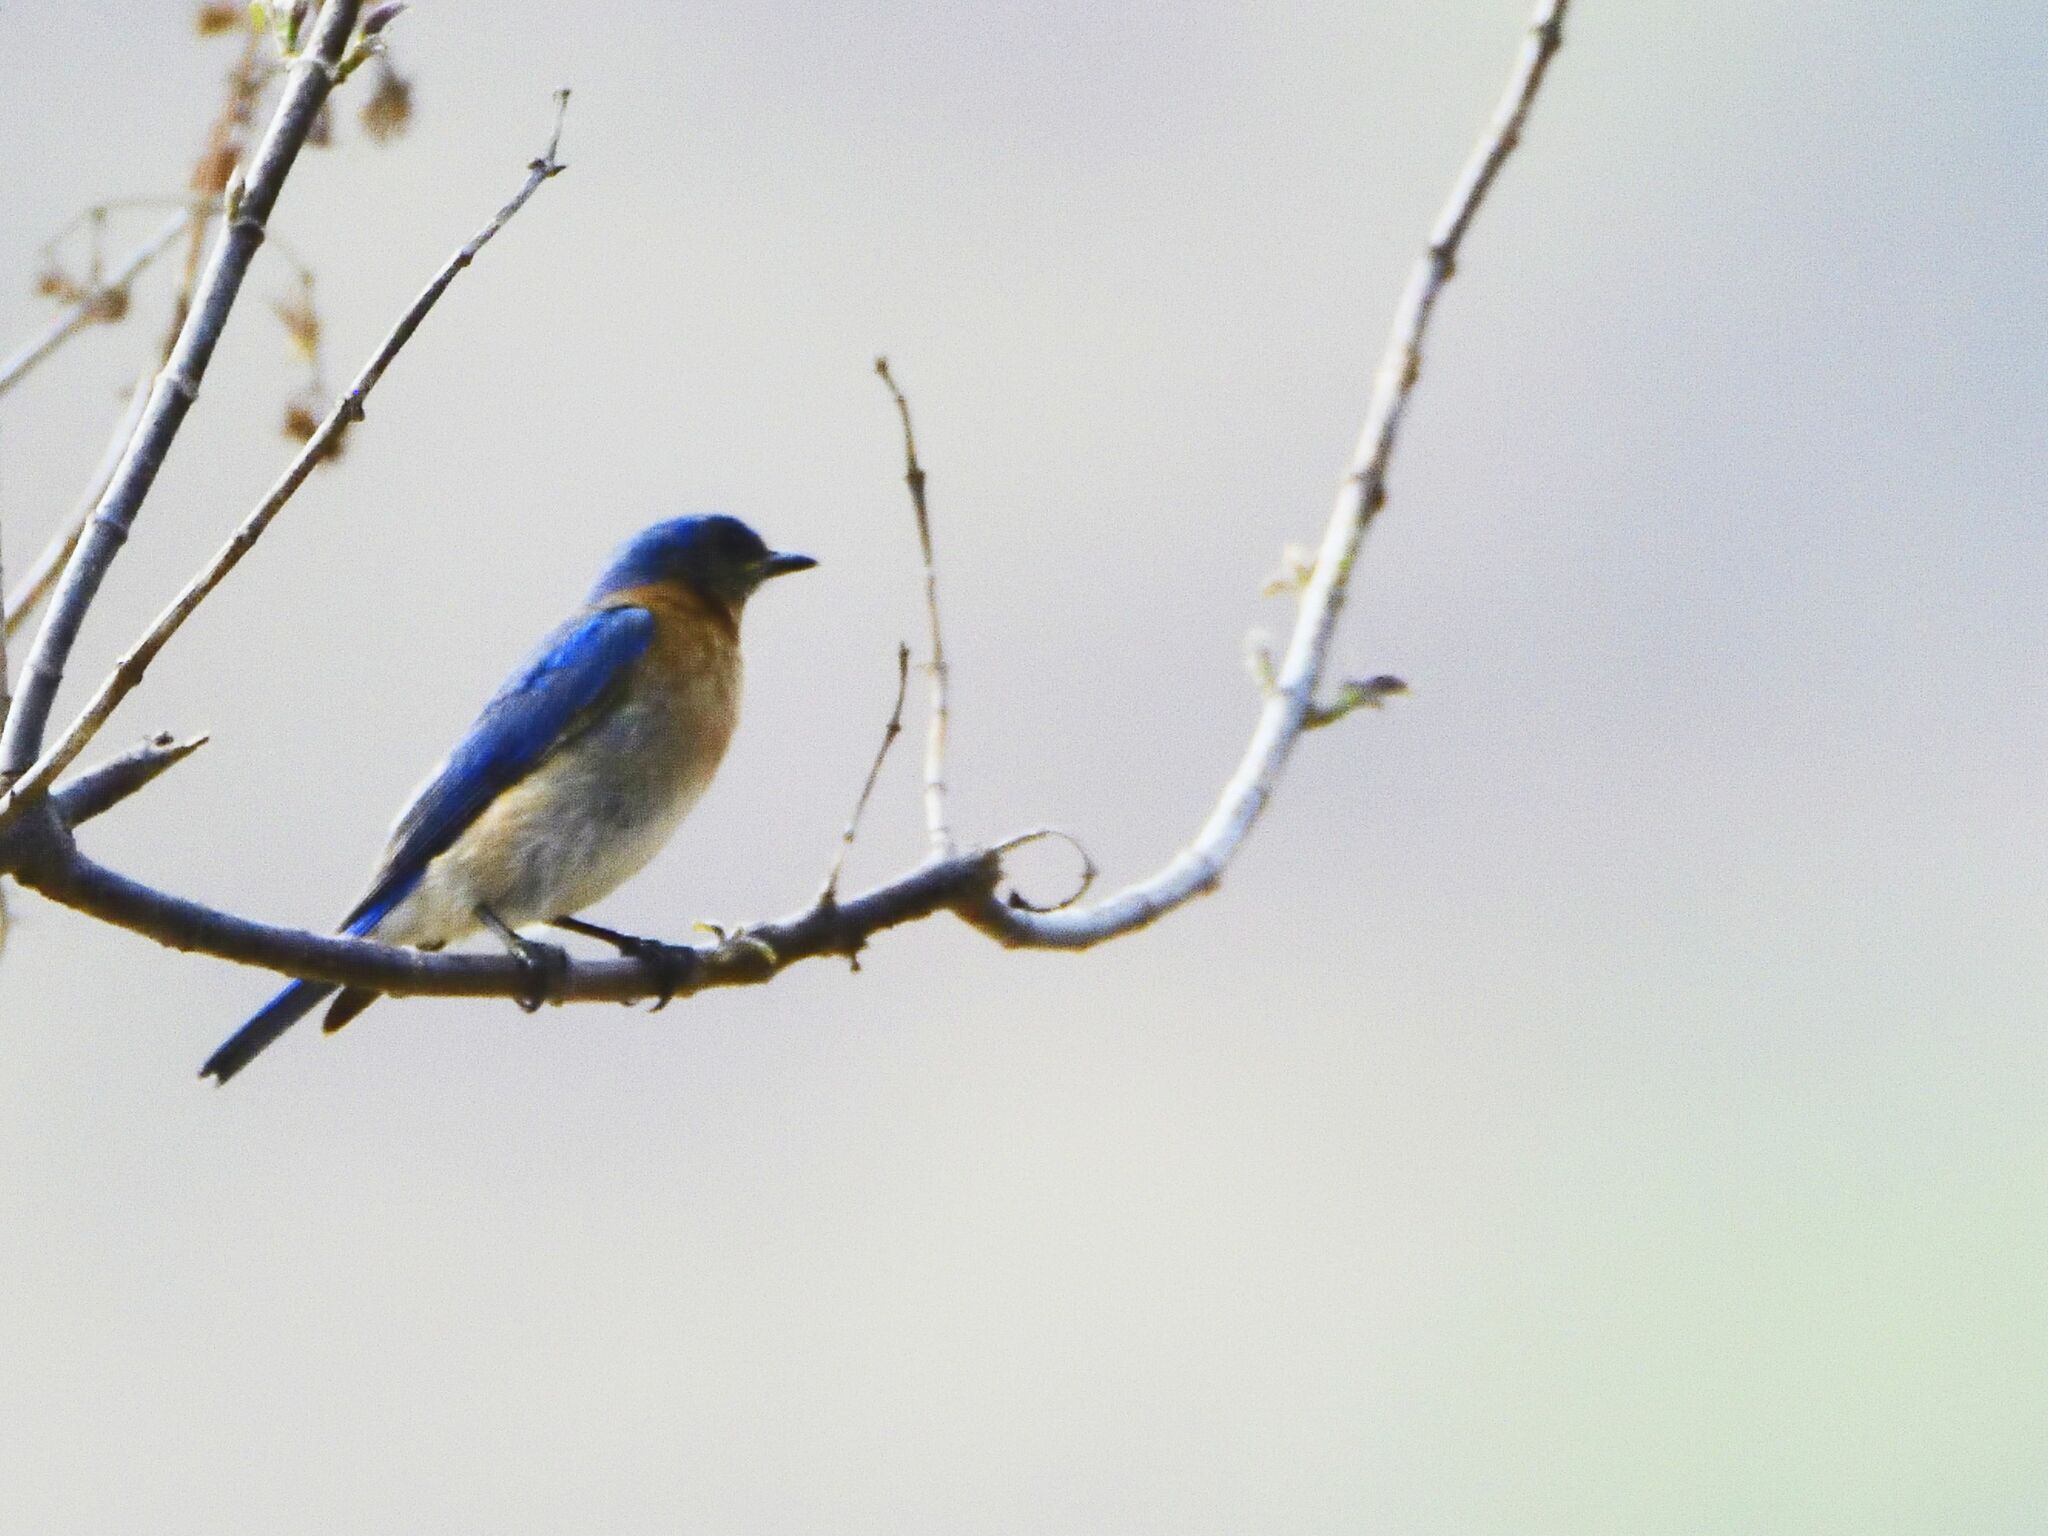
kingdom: Animalia
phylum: Chordata
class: Aves
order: Passeriformes
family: Turdidae
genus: Sialia
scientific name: Sialia sialis
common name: Eastern bluebird
